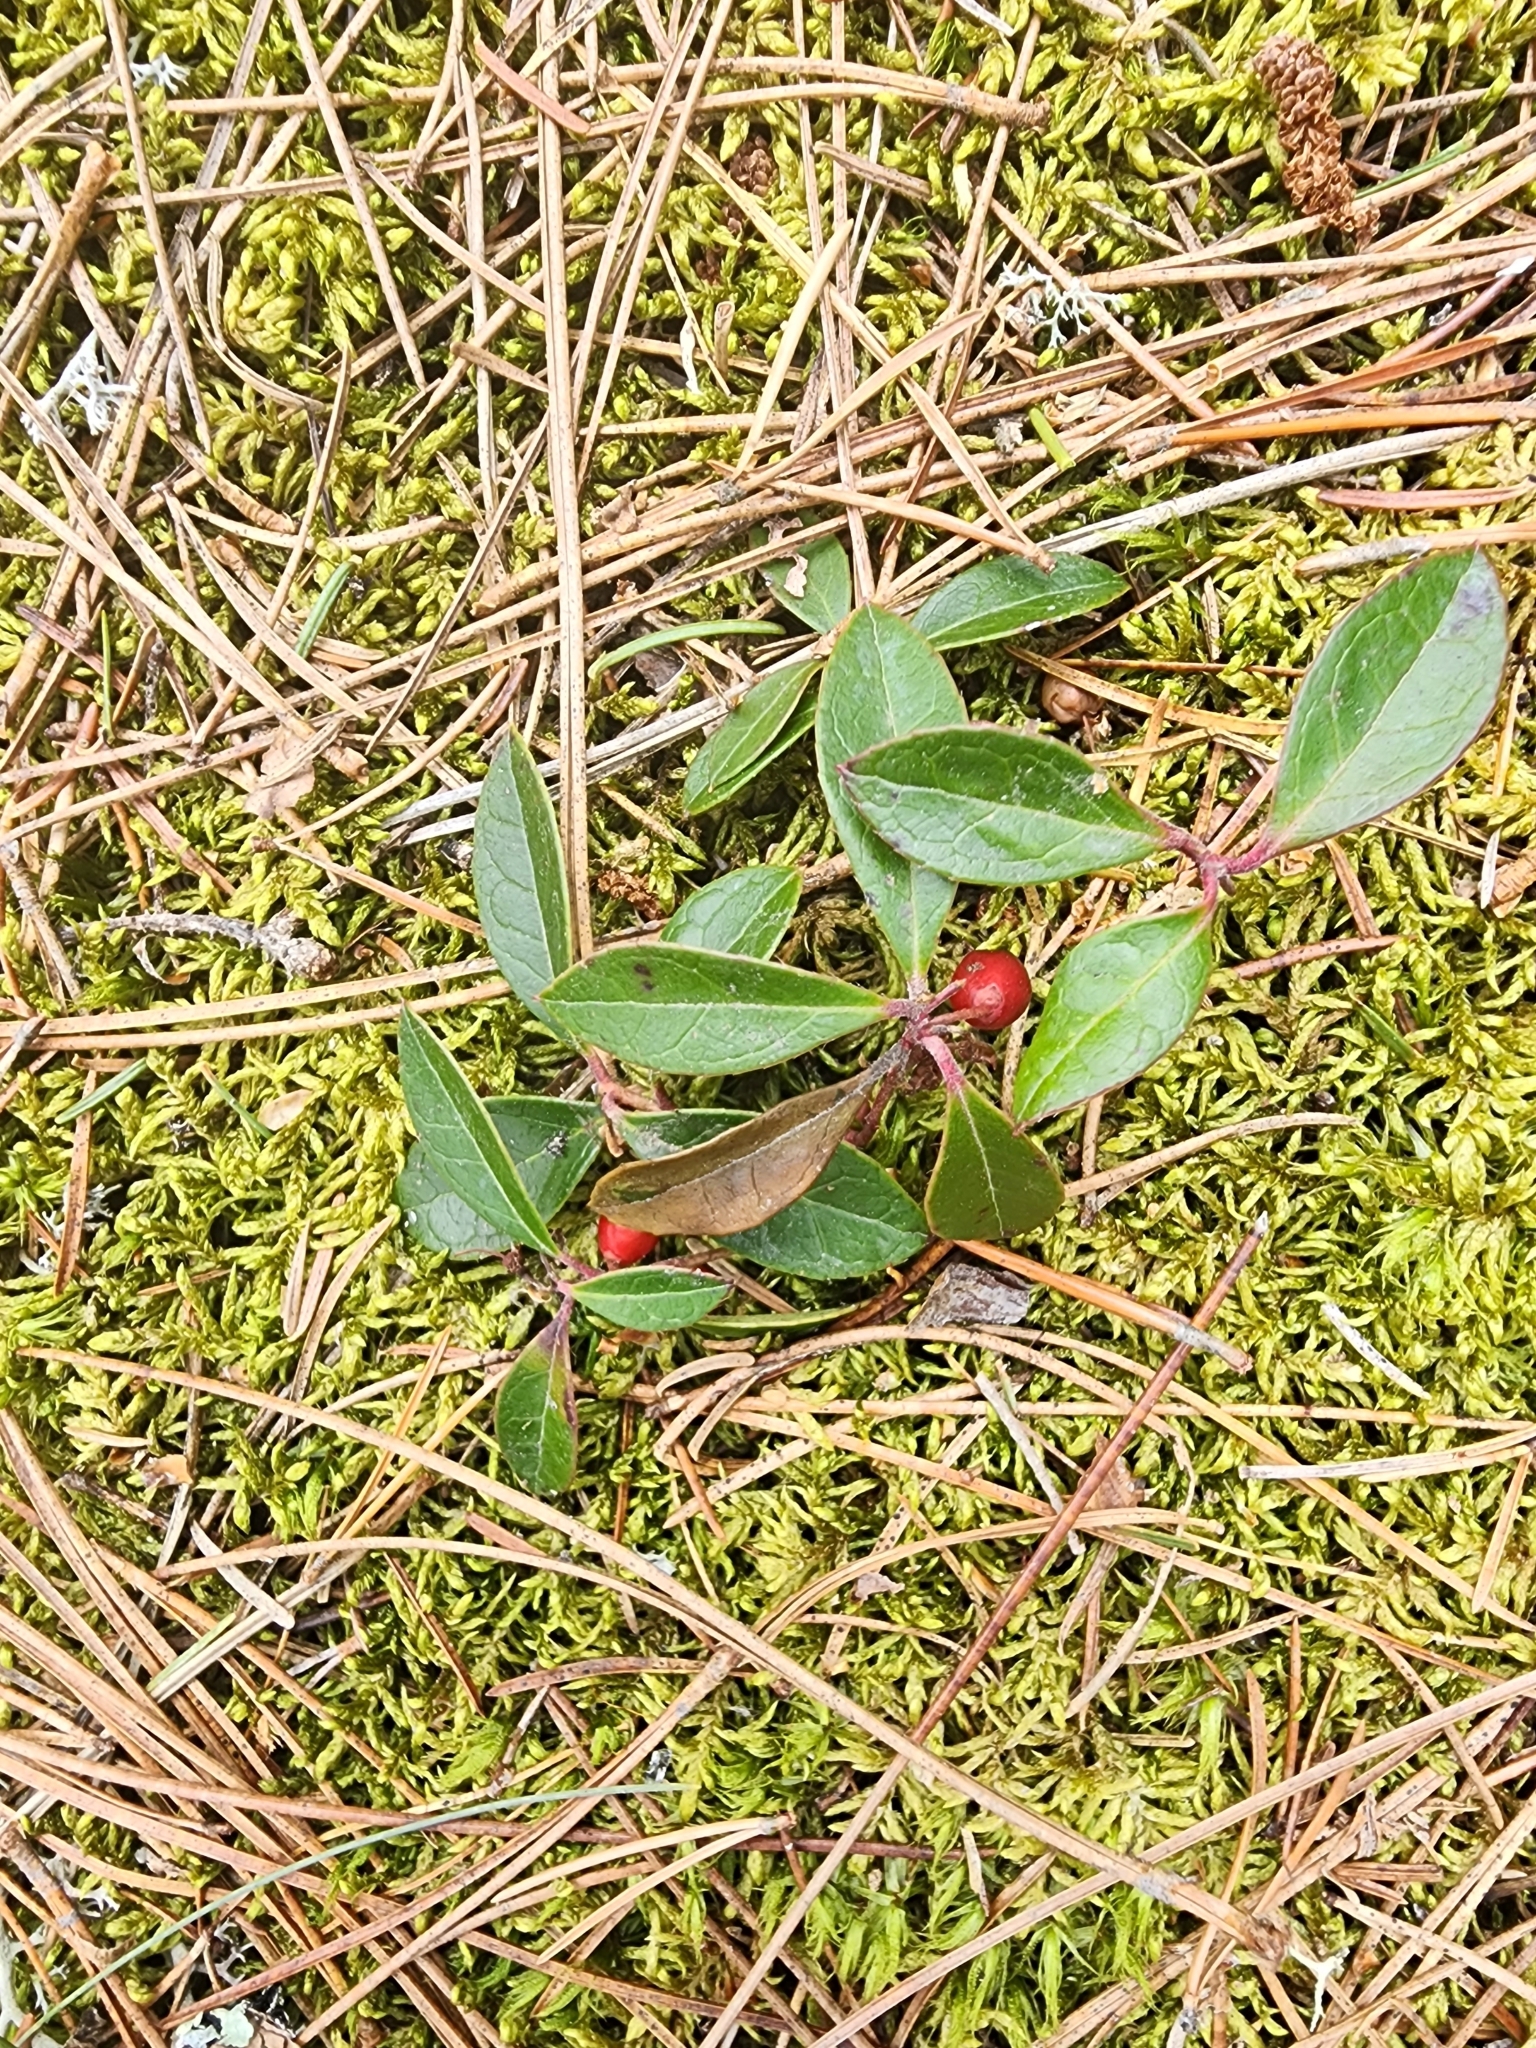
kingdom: Plantae
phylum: Tracheophyta
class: Magnoliopsida
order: Ericales
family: Ericaceae
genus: Gaultheria
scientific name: Gaultheria procumbens
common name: Checkerberry
